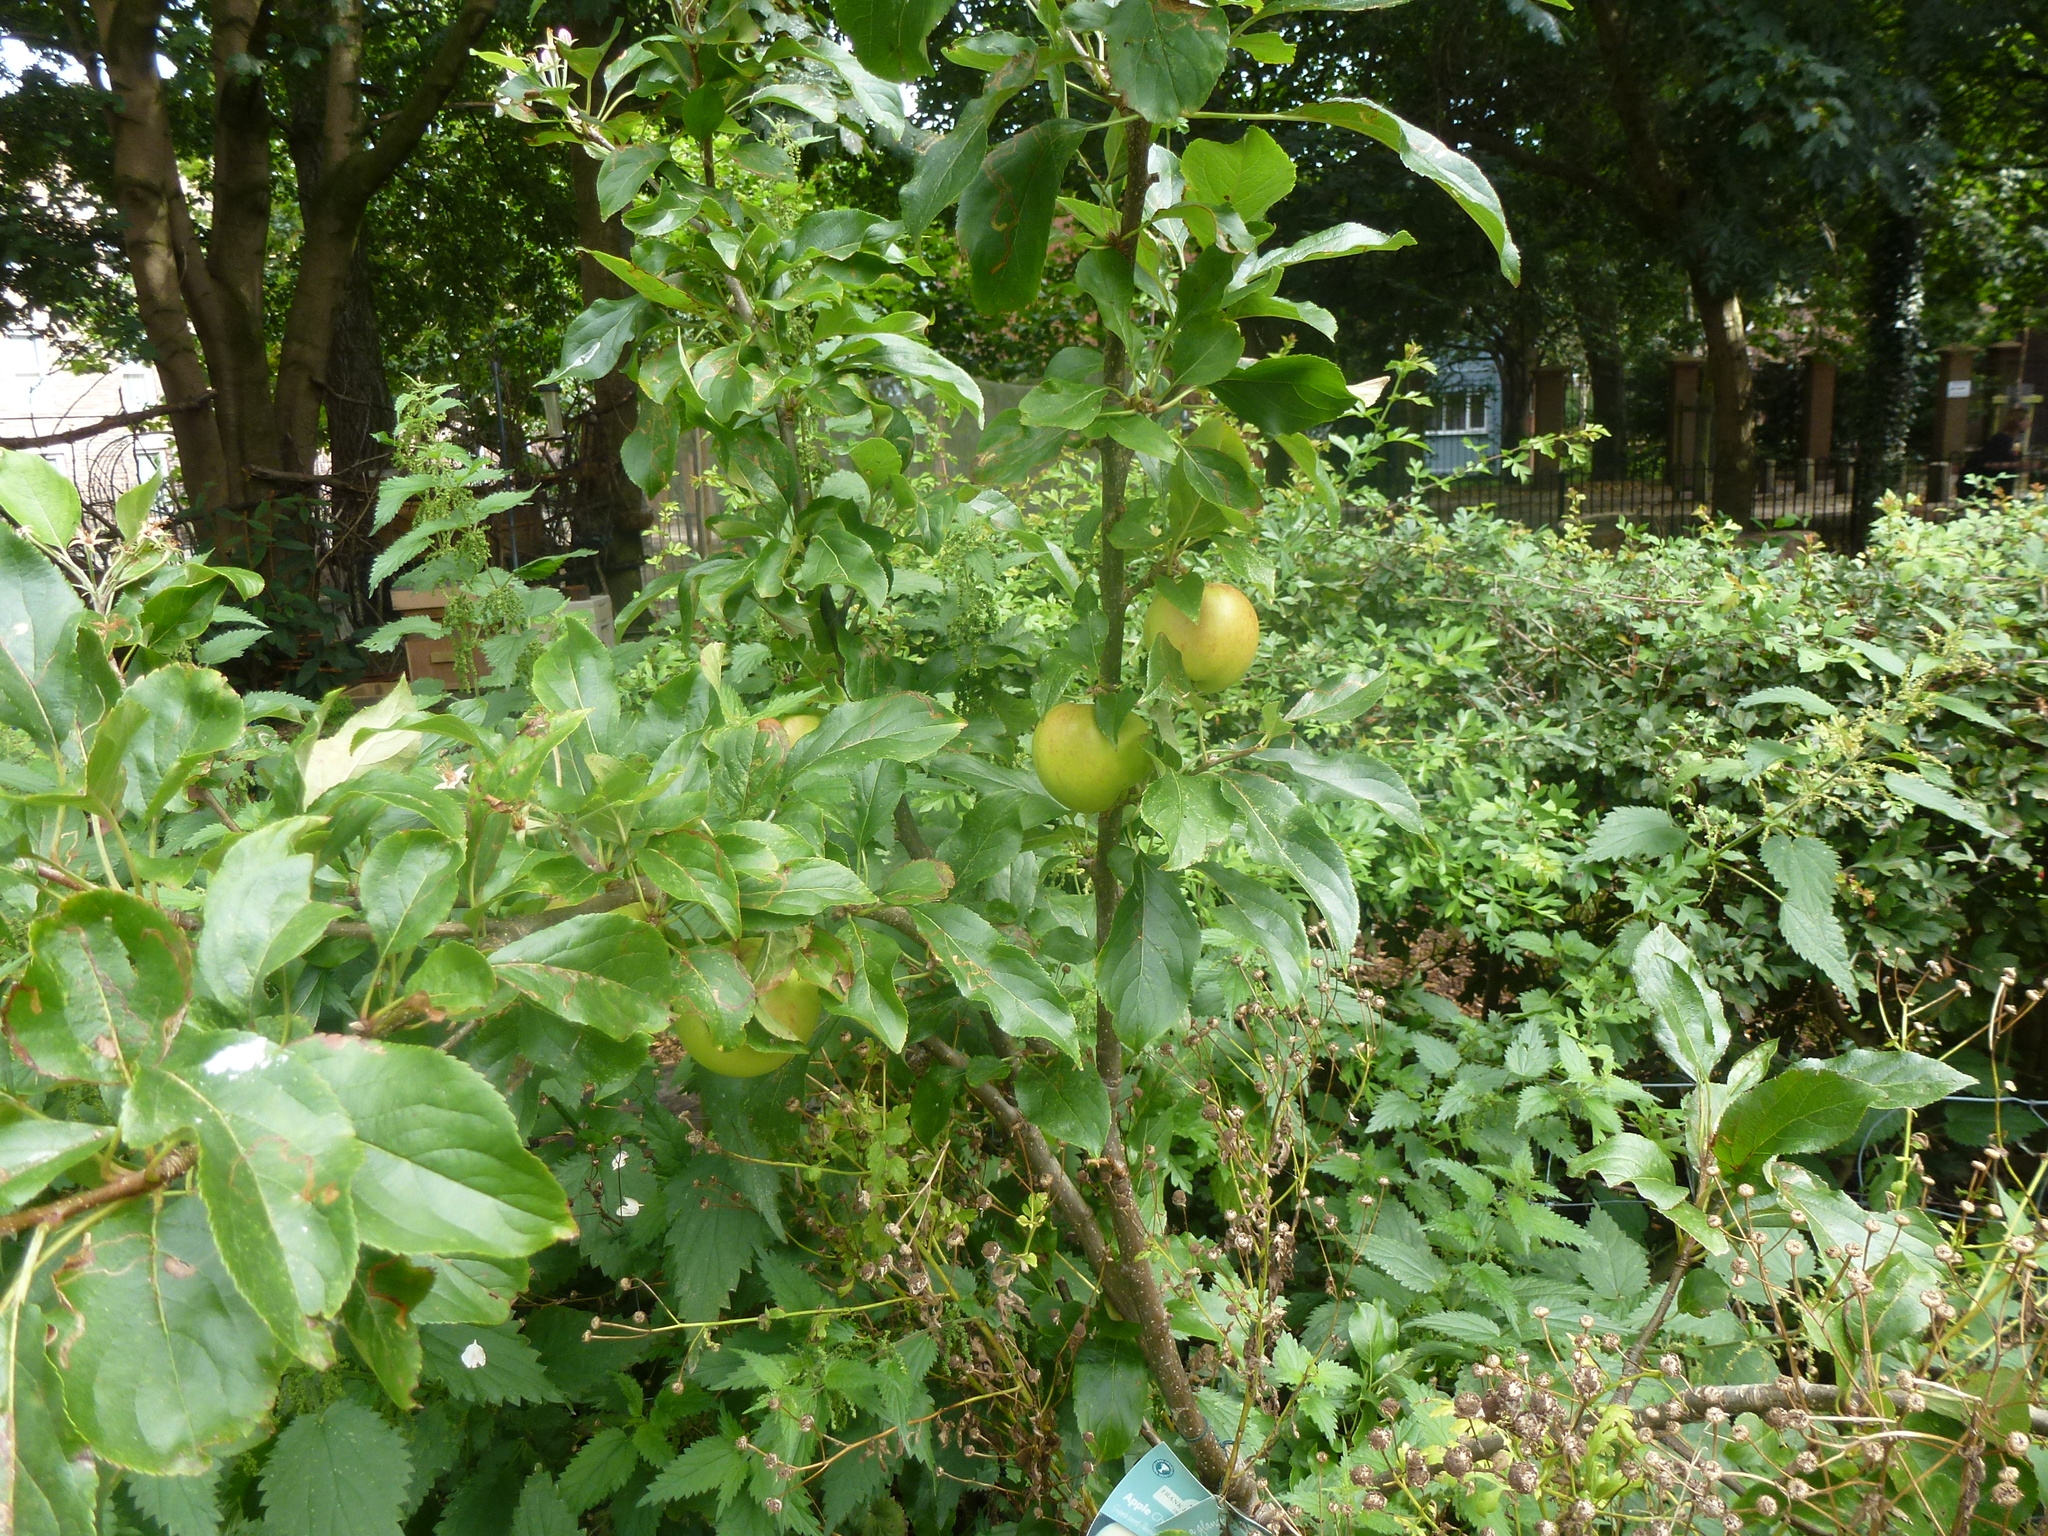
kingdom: Plantae
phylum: Tracheophyta
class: Magnoliopsida
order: Rosales
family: Rosaceae
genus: Malus
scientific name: Malus domestica
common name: Apple
